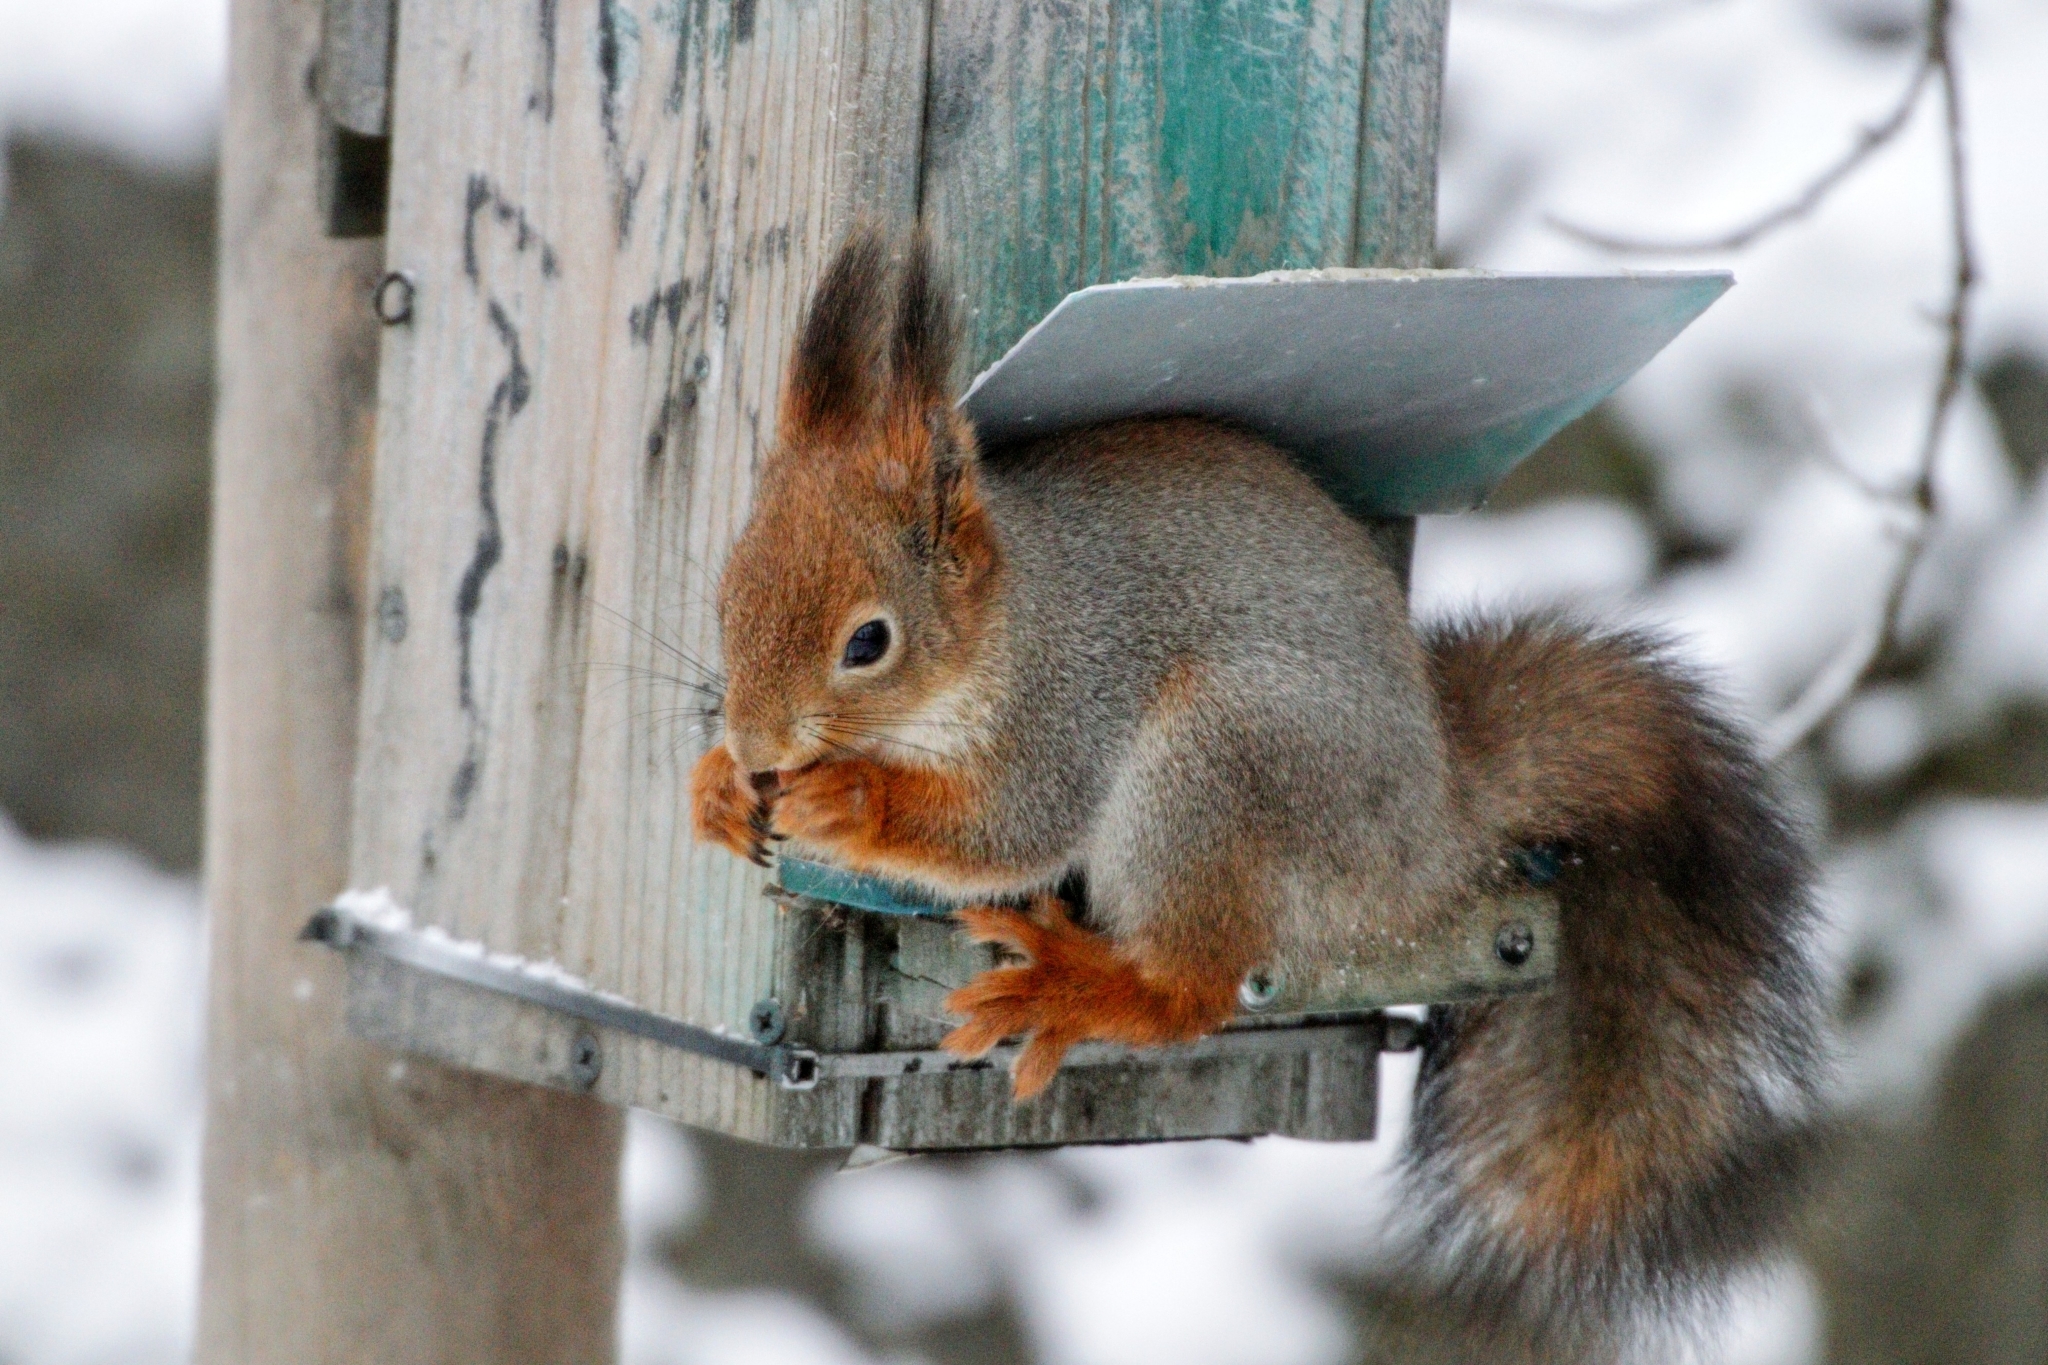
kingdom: Animalia
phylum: Chordata
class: Mammalia
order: Rodentia
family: Sciuridae
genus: Sciurus
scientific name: Sciurus vulgaris
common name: Eurasian red squirrel
